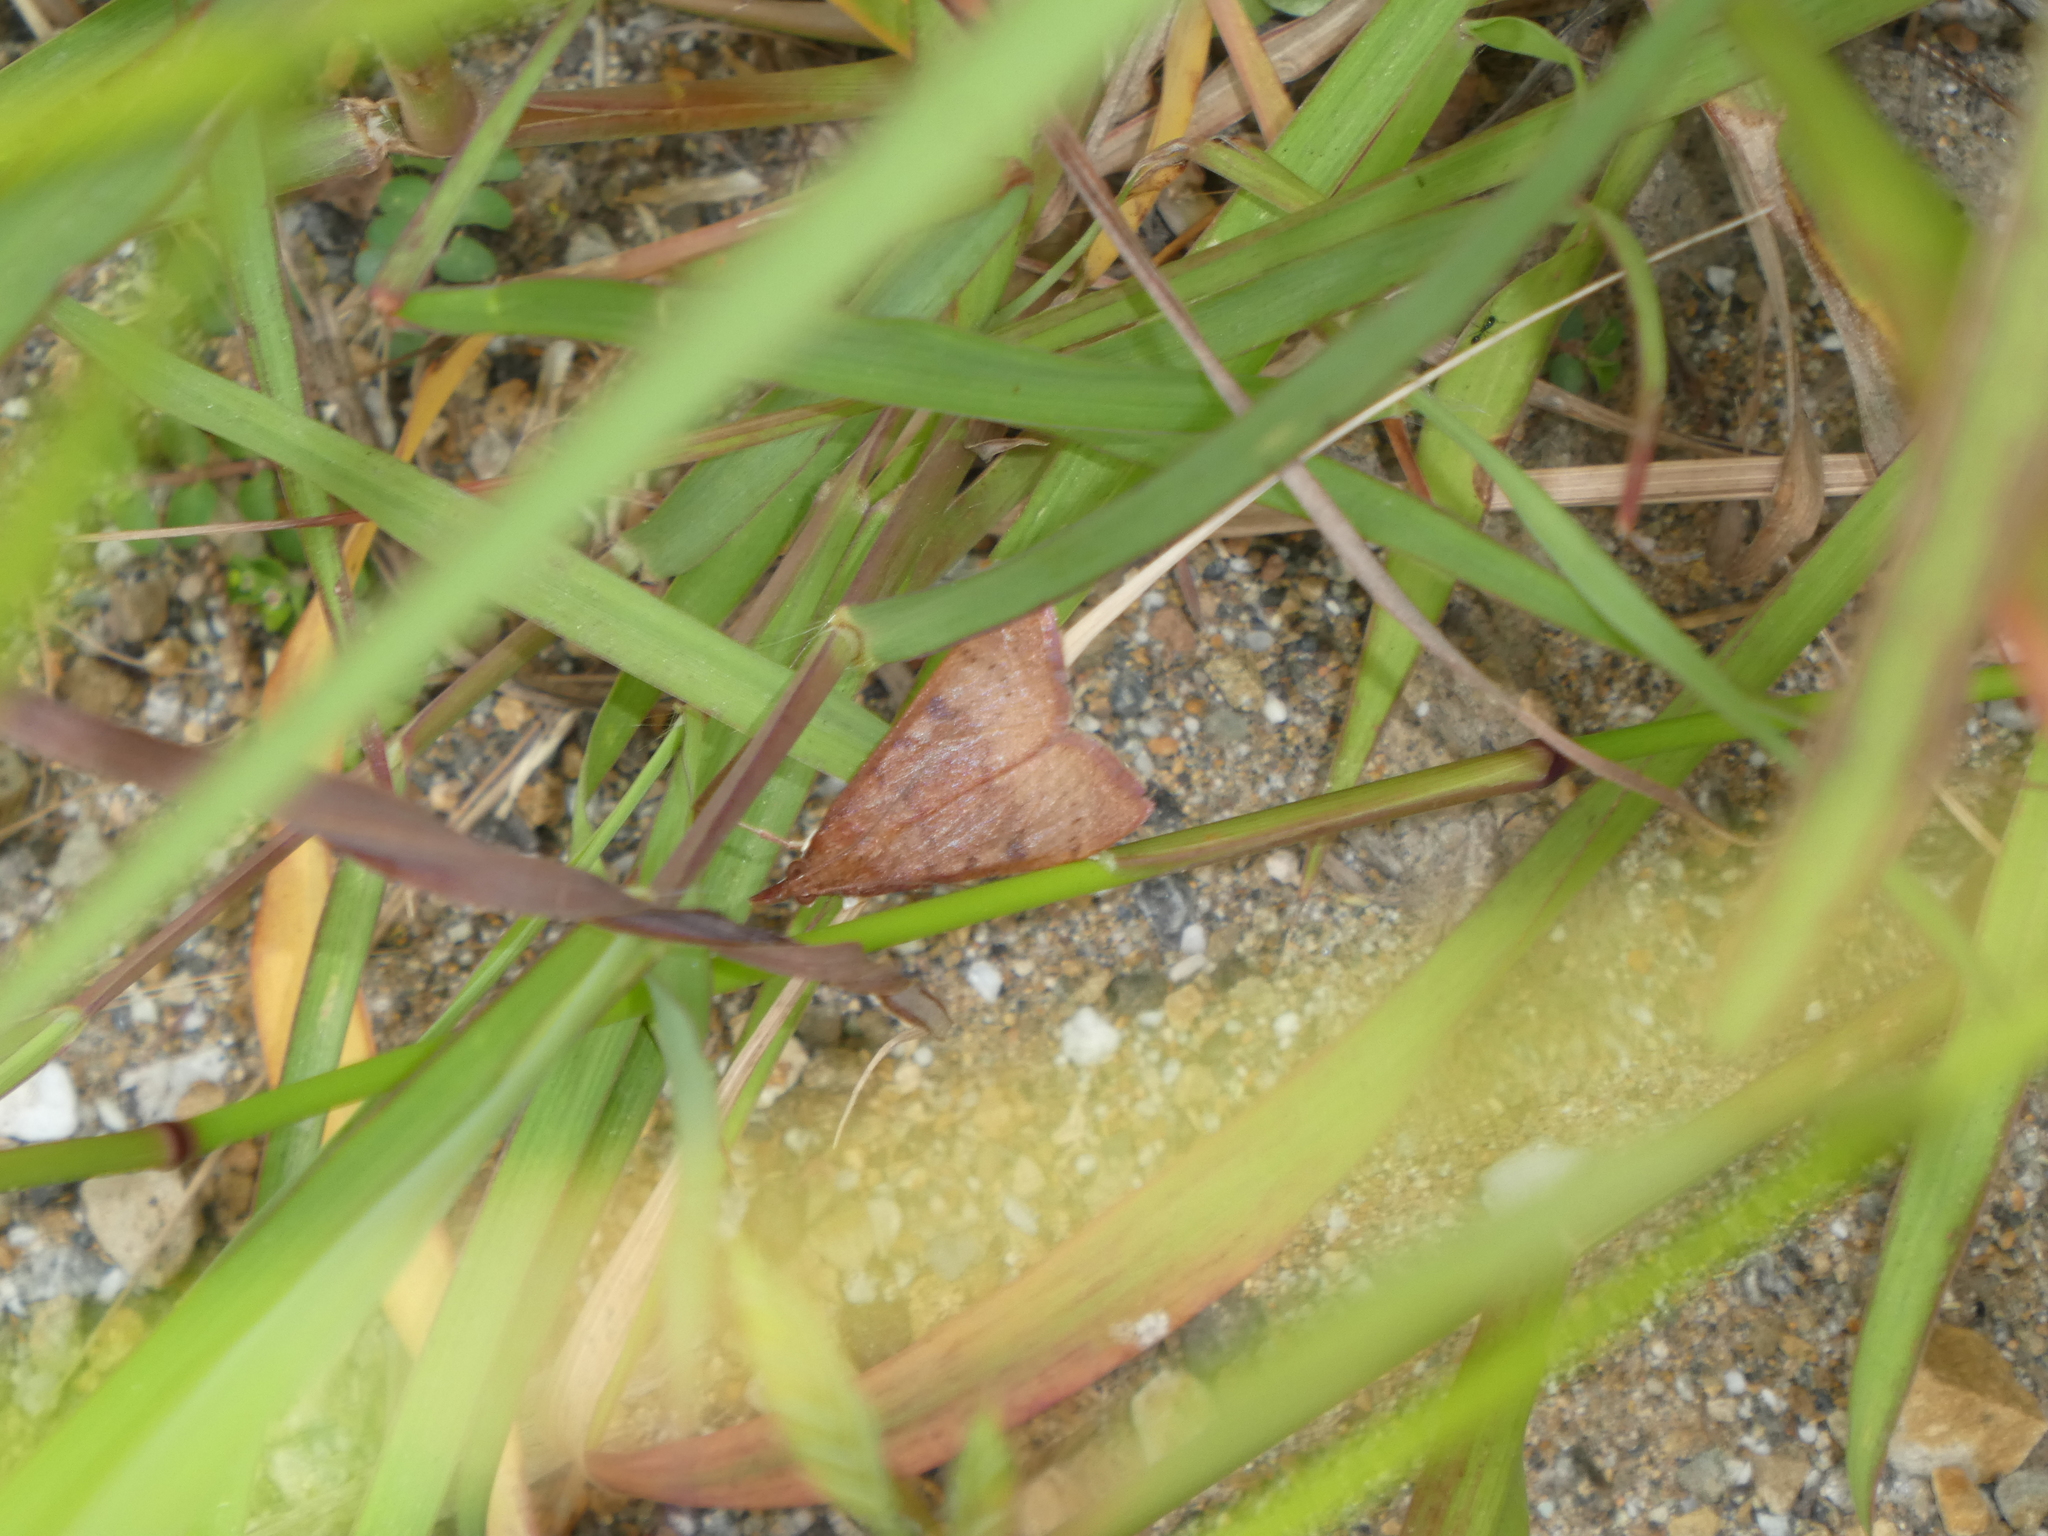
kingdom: Animalia
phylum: Arthropoda
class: Insecta
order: Lepidoptera
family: Crambidae
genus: Uresiphita
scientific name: Uresiphita reversalis
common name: Genista broom moth
